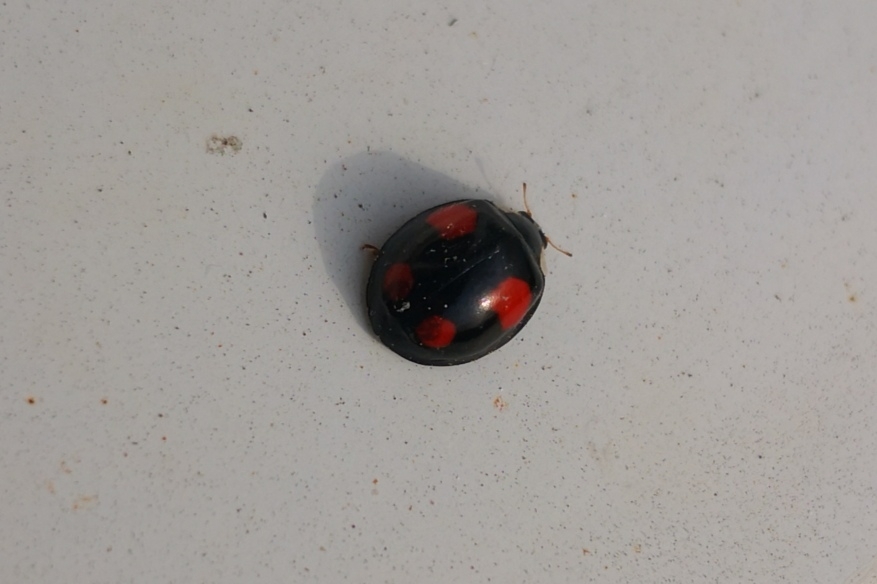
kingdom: Animalia
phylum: Arthropoda
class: Insecta
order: Coleoptera
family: Coccinellidae
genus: Harmonia
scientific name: Harmonia axyridis
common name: Harlequin ladybird
